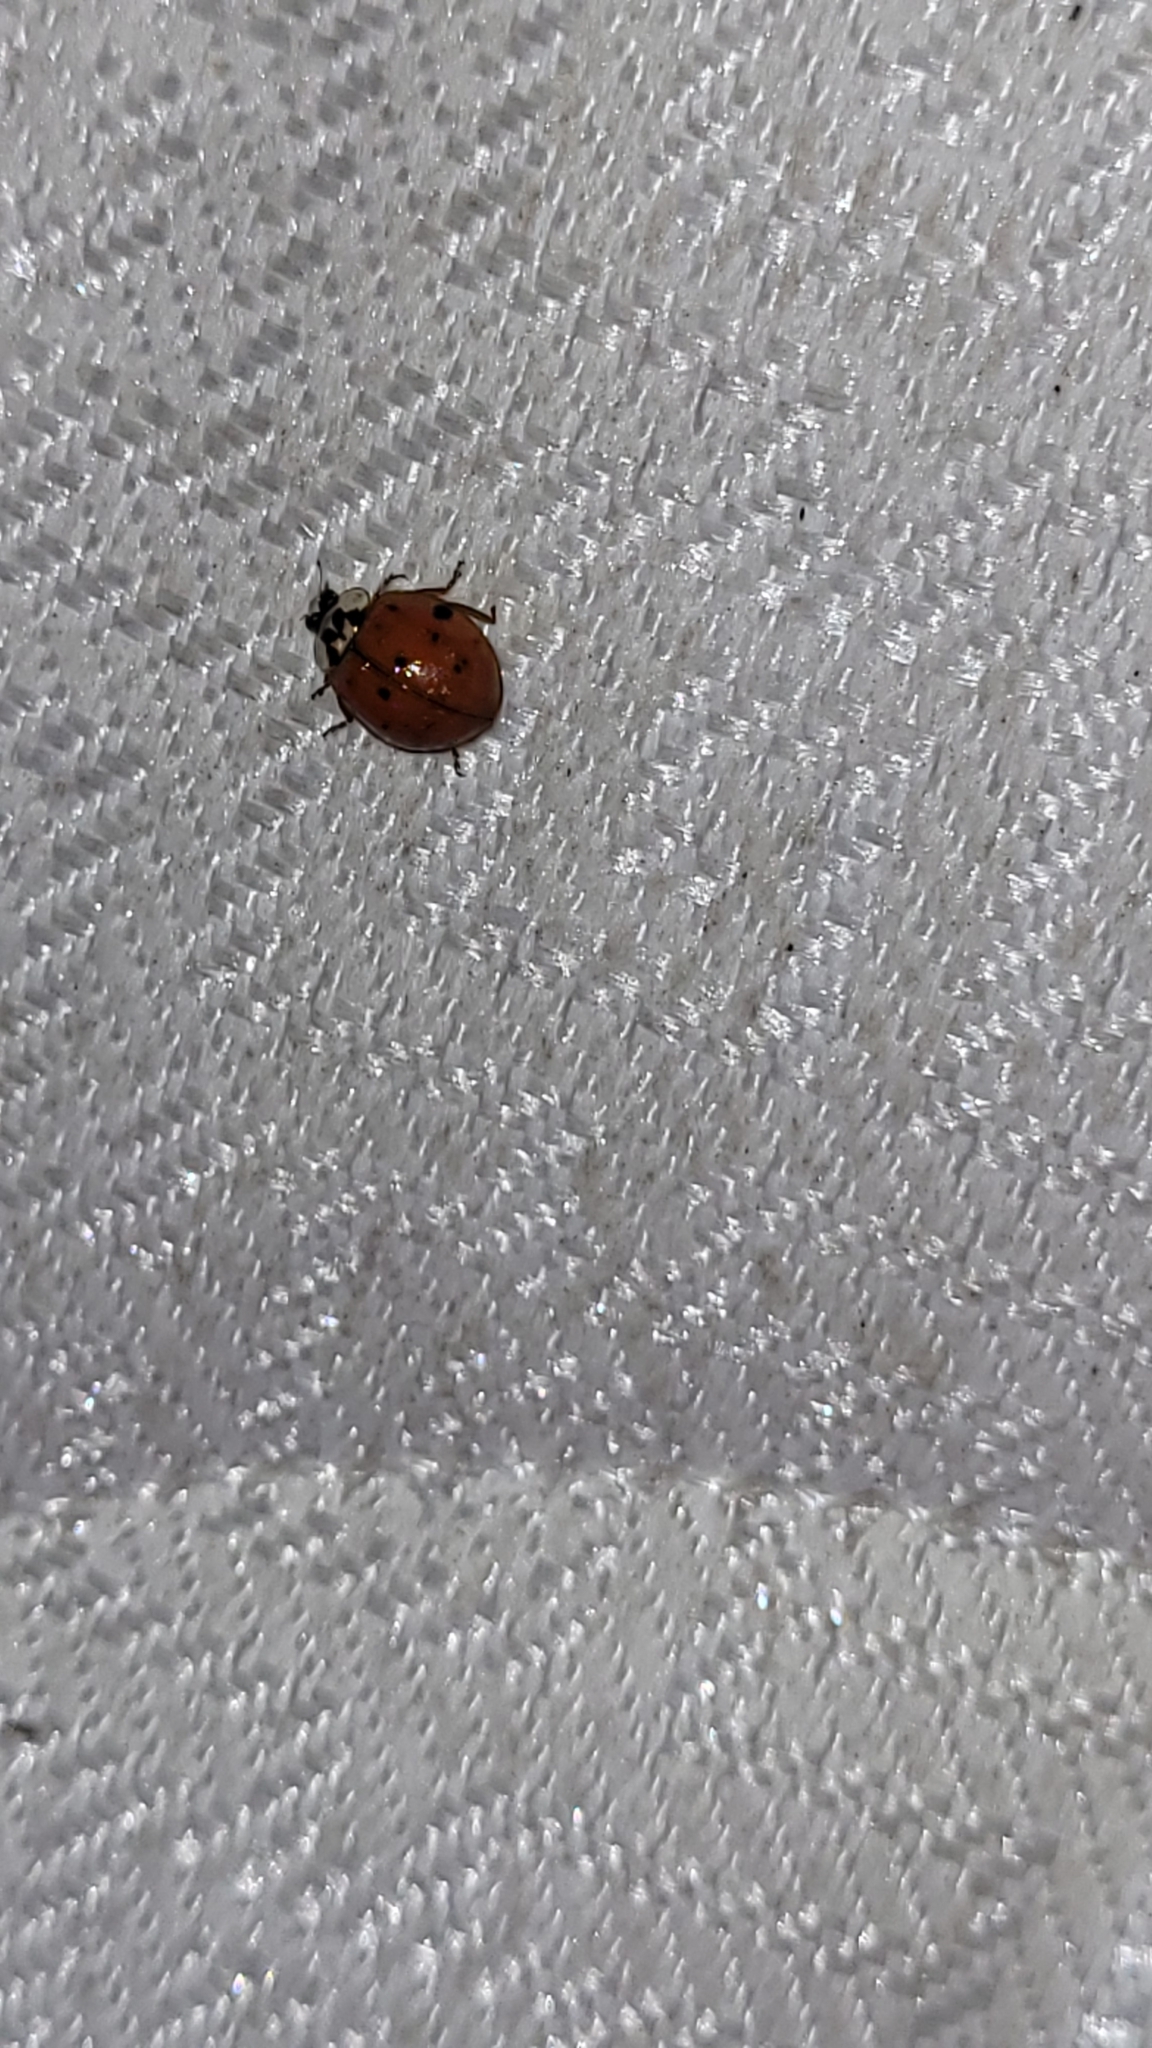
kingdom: Animalia
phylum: Arthropoda
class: Insecta
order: Coleoptera
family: Coccinellidae
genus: Harmonia
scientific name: Harmonia axyridis
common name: Harlequin ladybird
